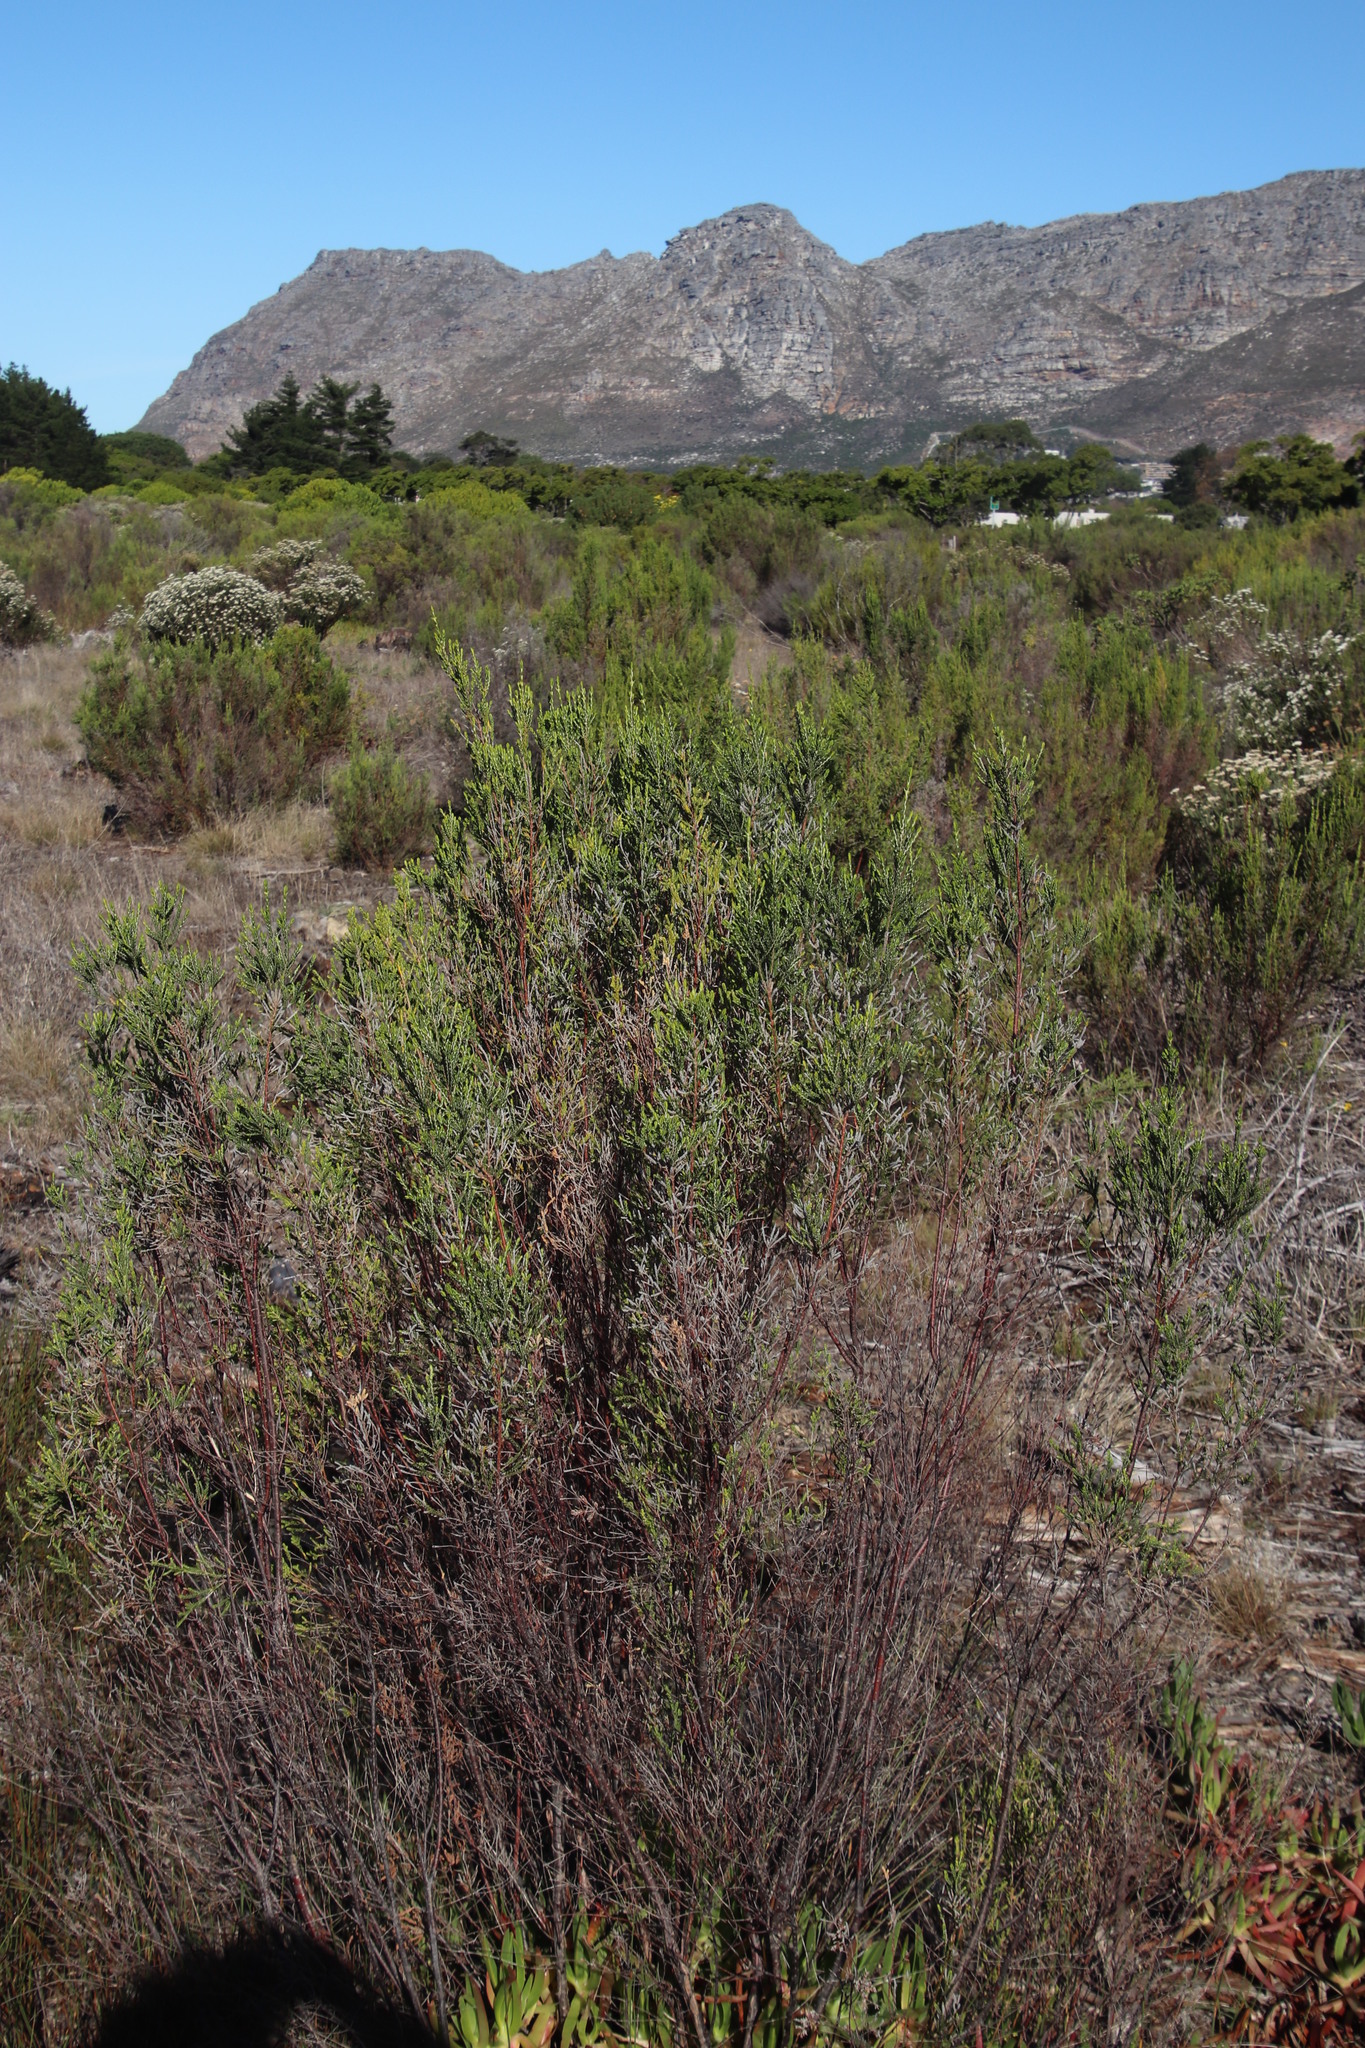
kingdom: Plantae
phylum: Tracheophyta
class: Magnoliopsida
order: Malvales
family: Thymelaeaceae
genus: Passerina
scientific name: Passerina corymbosa
